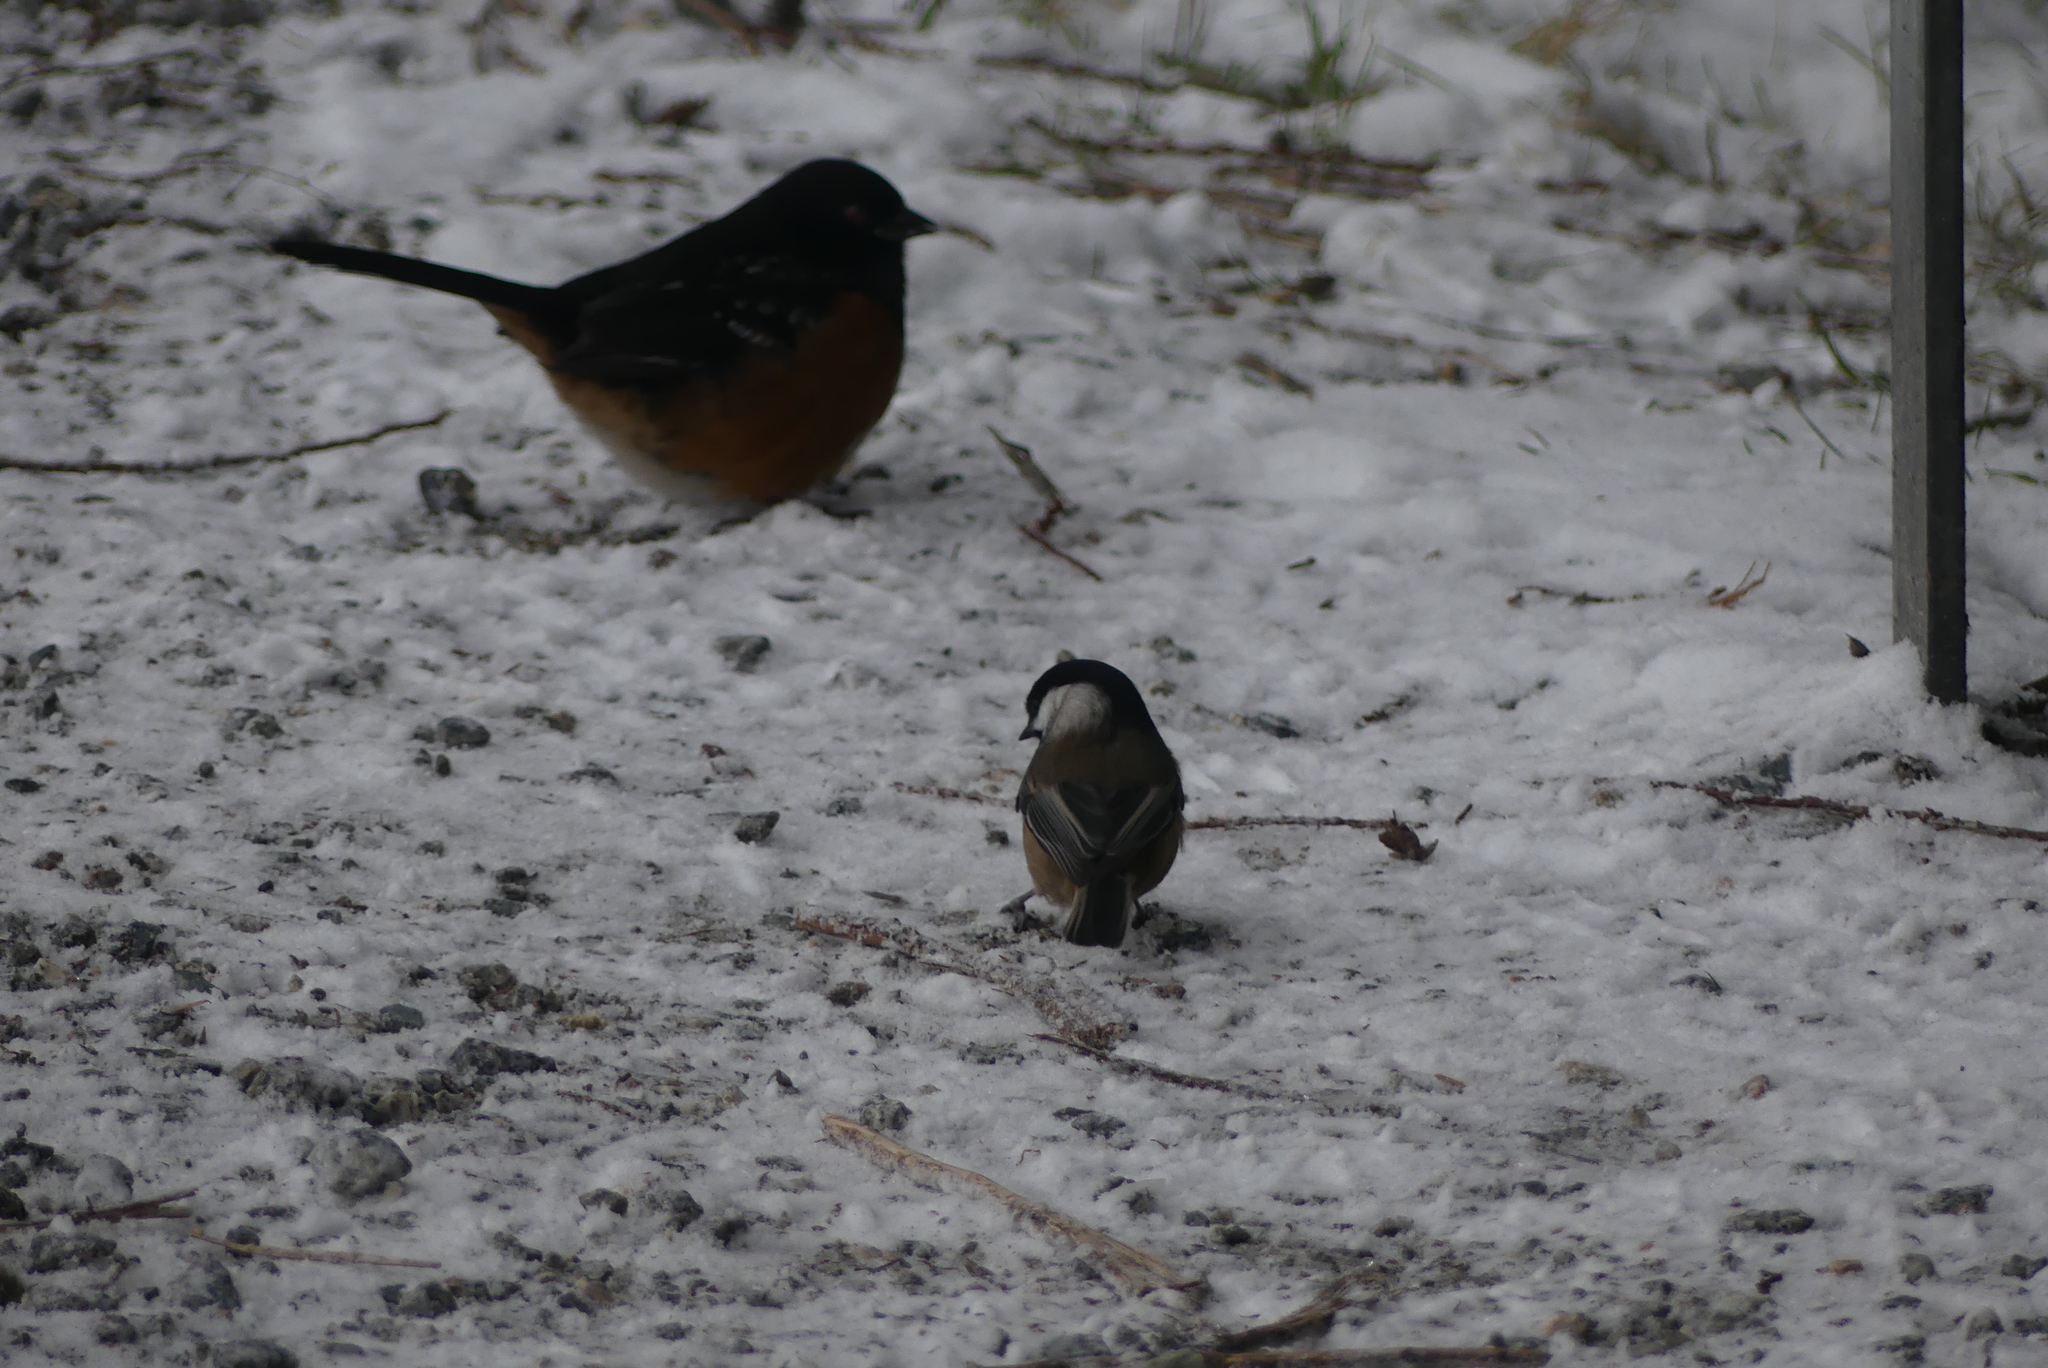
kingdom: Animalia
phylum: Chordata
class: Aves
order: Passeriformes
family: Paridae
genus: Poecile
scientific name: Poecile atricapillus
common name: Black-capped chickadee
